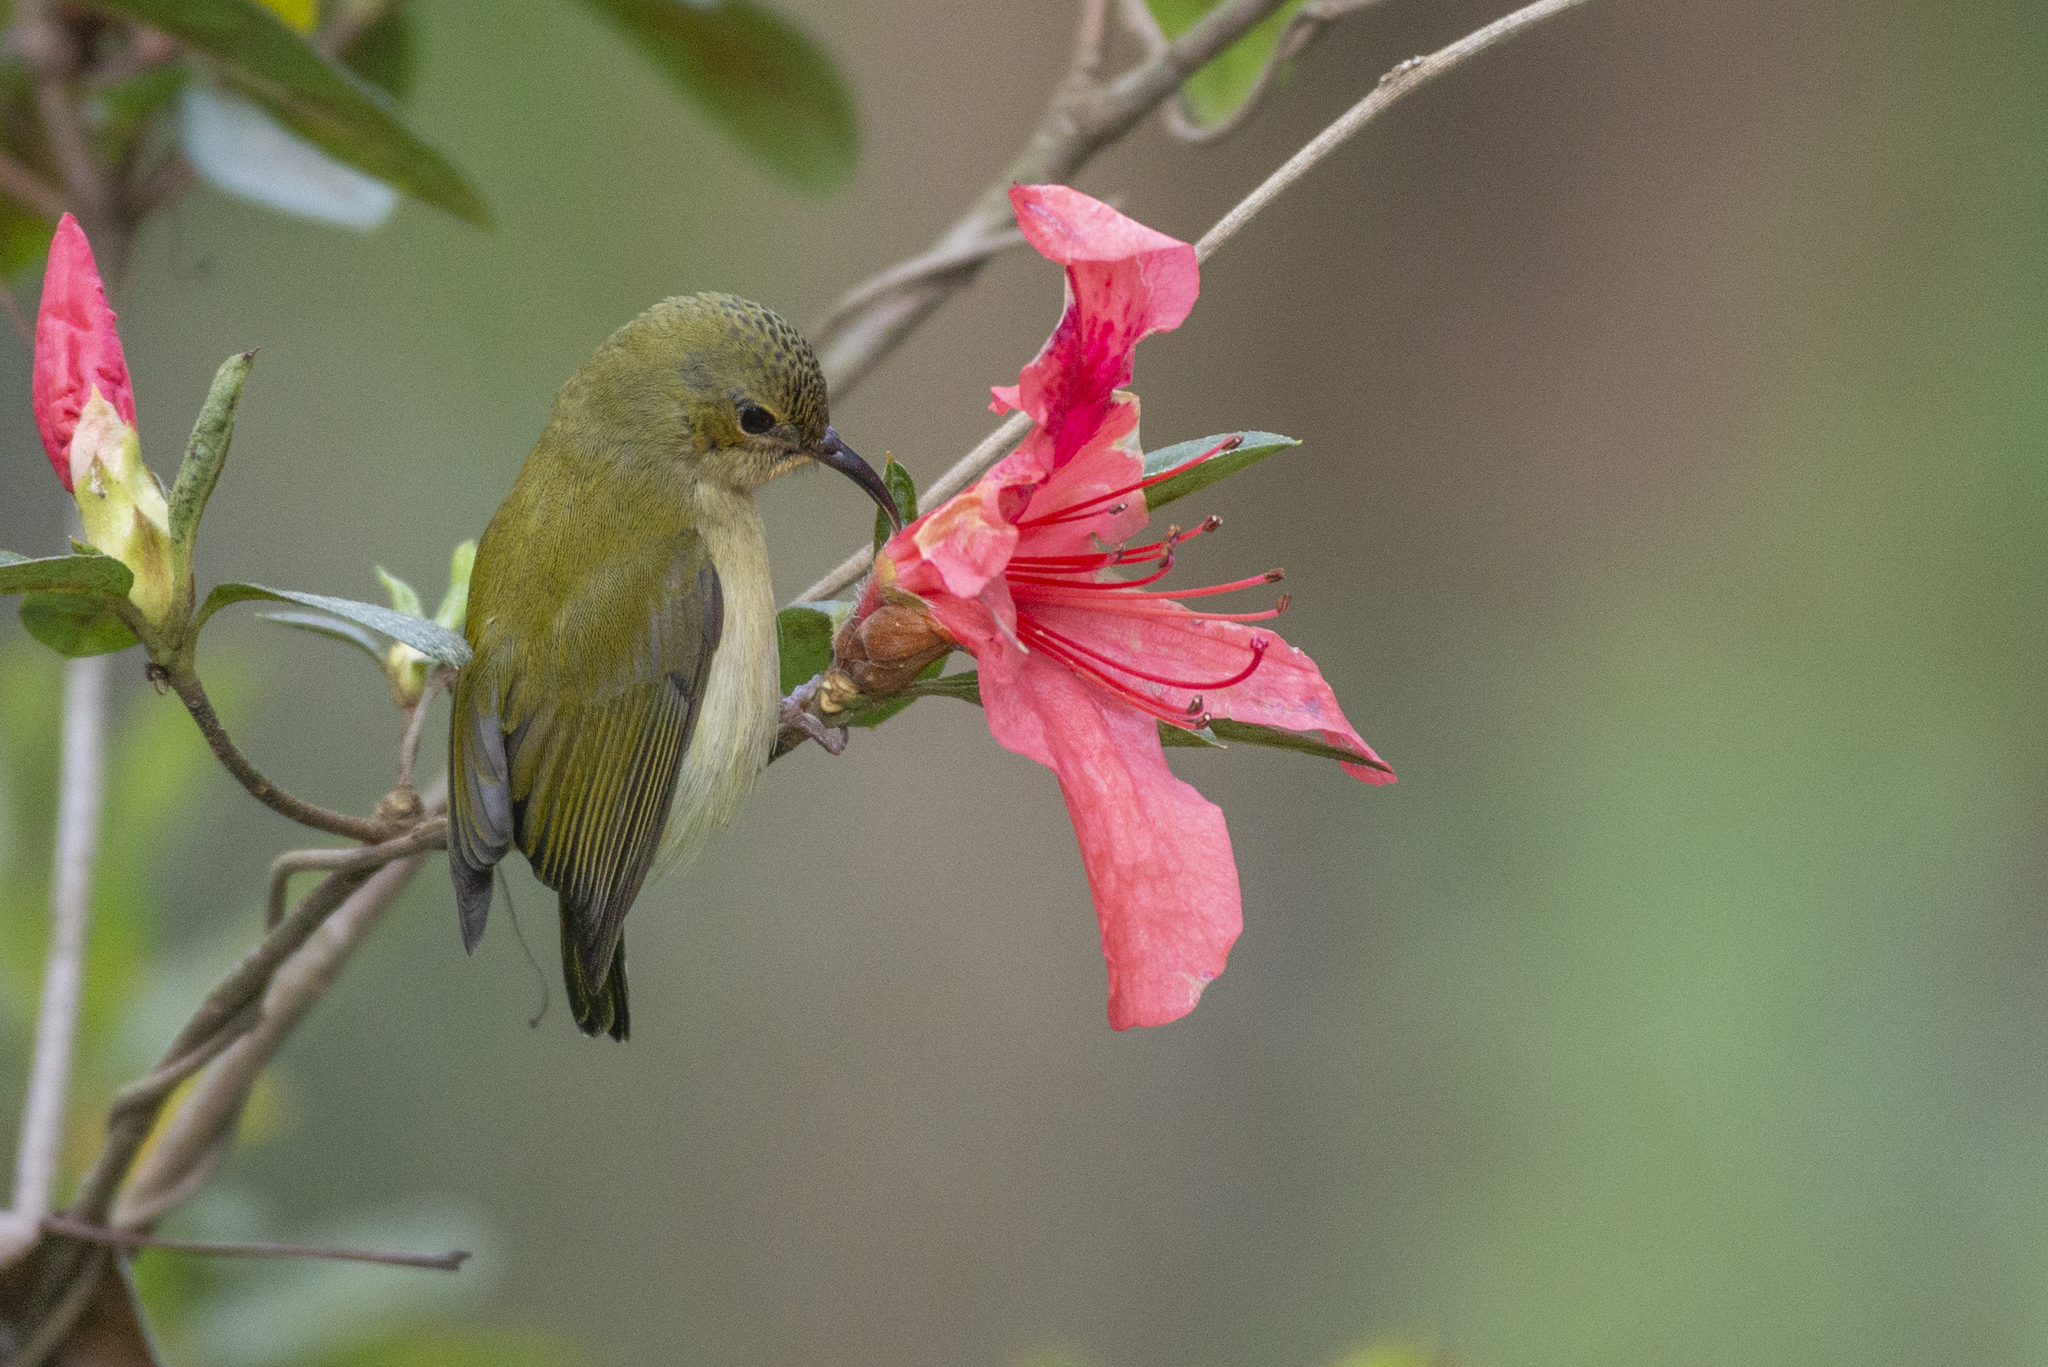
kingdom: Animalia
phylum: Chordata
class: Aves
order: Passeriformes
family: Nectariniidae
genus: Aethopyga
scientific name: Aethopyga christinae
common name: Fork-tailed sunbird
